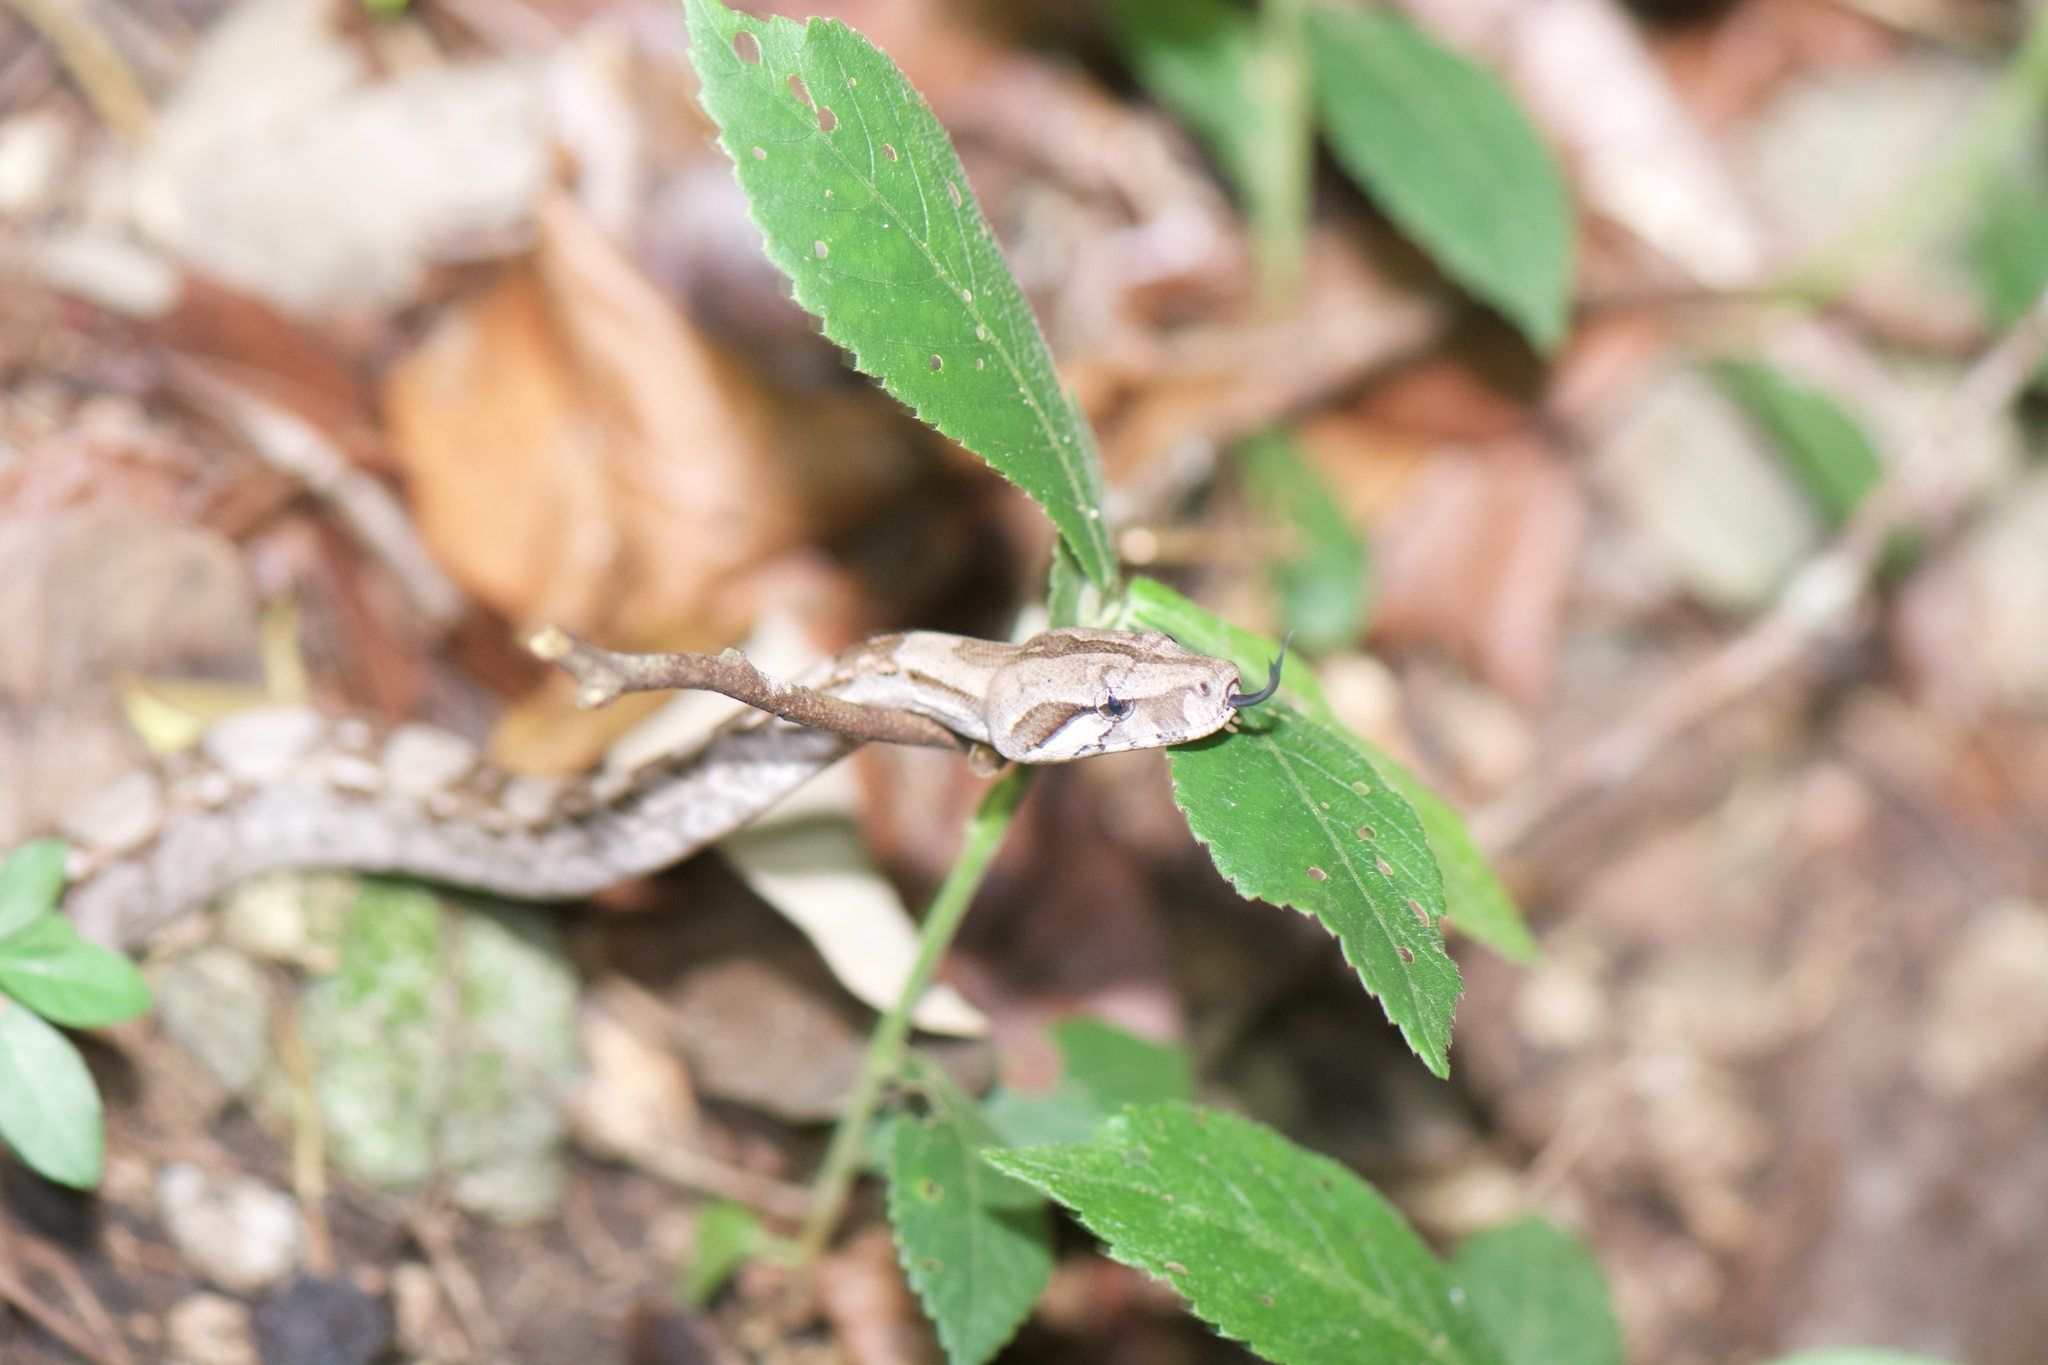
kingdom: Animalia
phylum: Chordata
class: Squamata
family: Boidae
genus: Boa
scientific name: Boa imperator
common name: Central american boa
